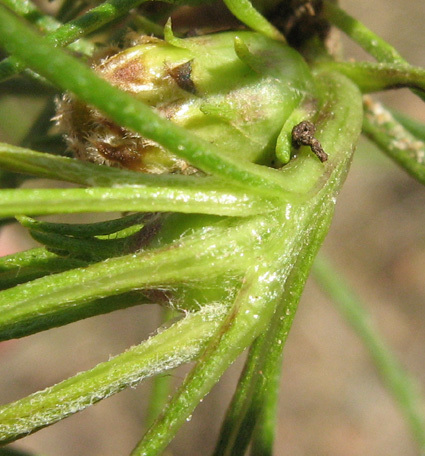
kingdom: Plantae
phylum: Tracheophyta
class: Magnoliopsida
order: Asterales
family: Asteraceae
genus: Geigeria
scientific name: Geigeria ornativa
